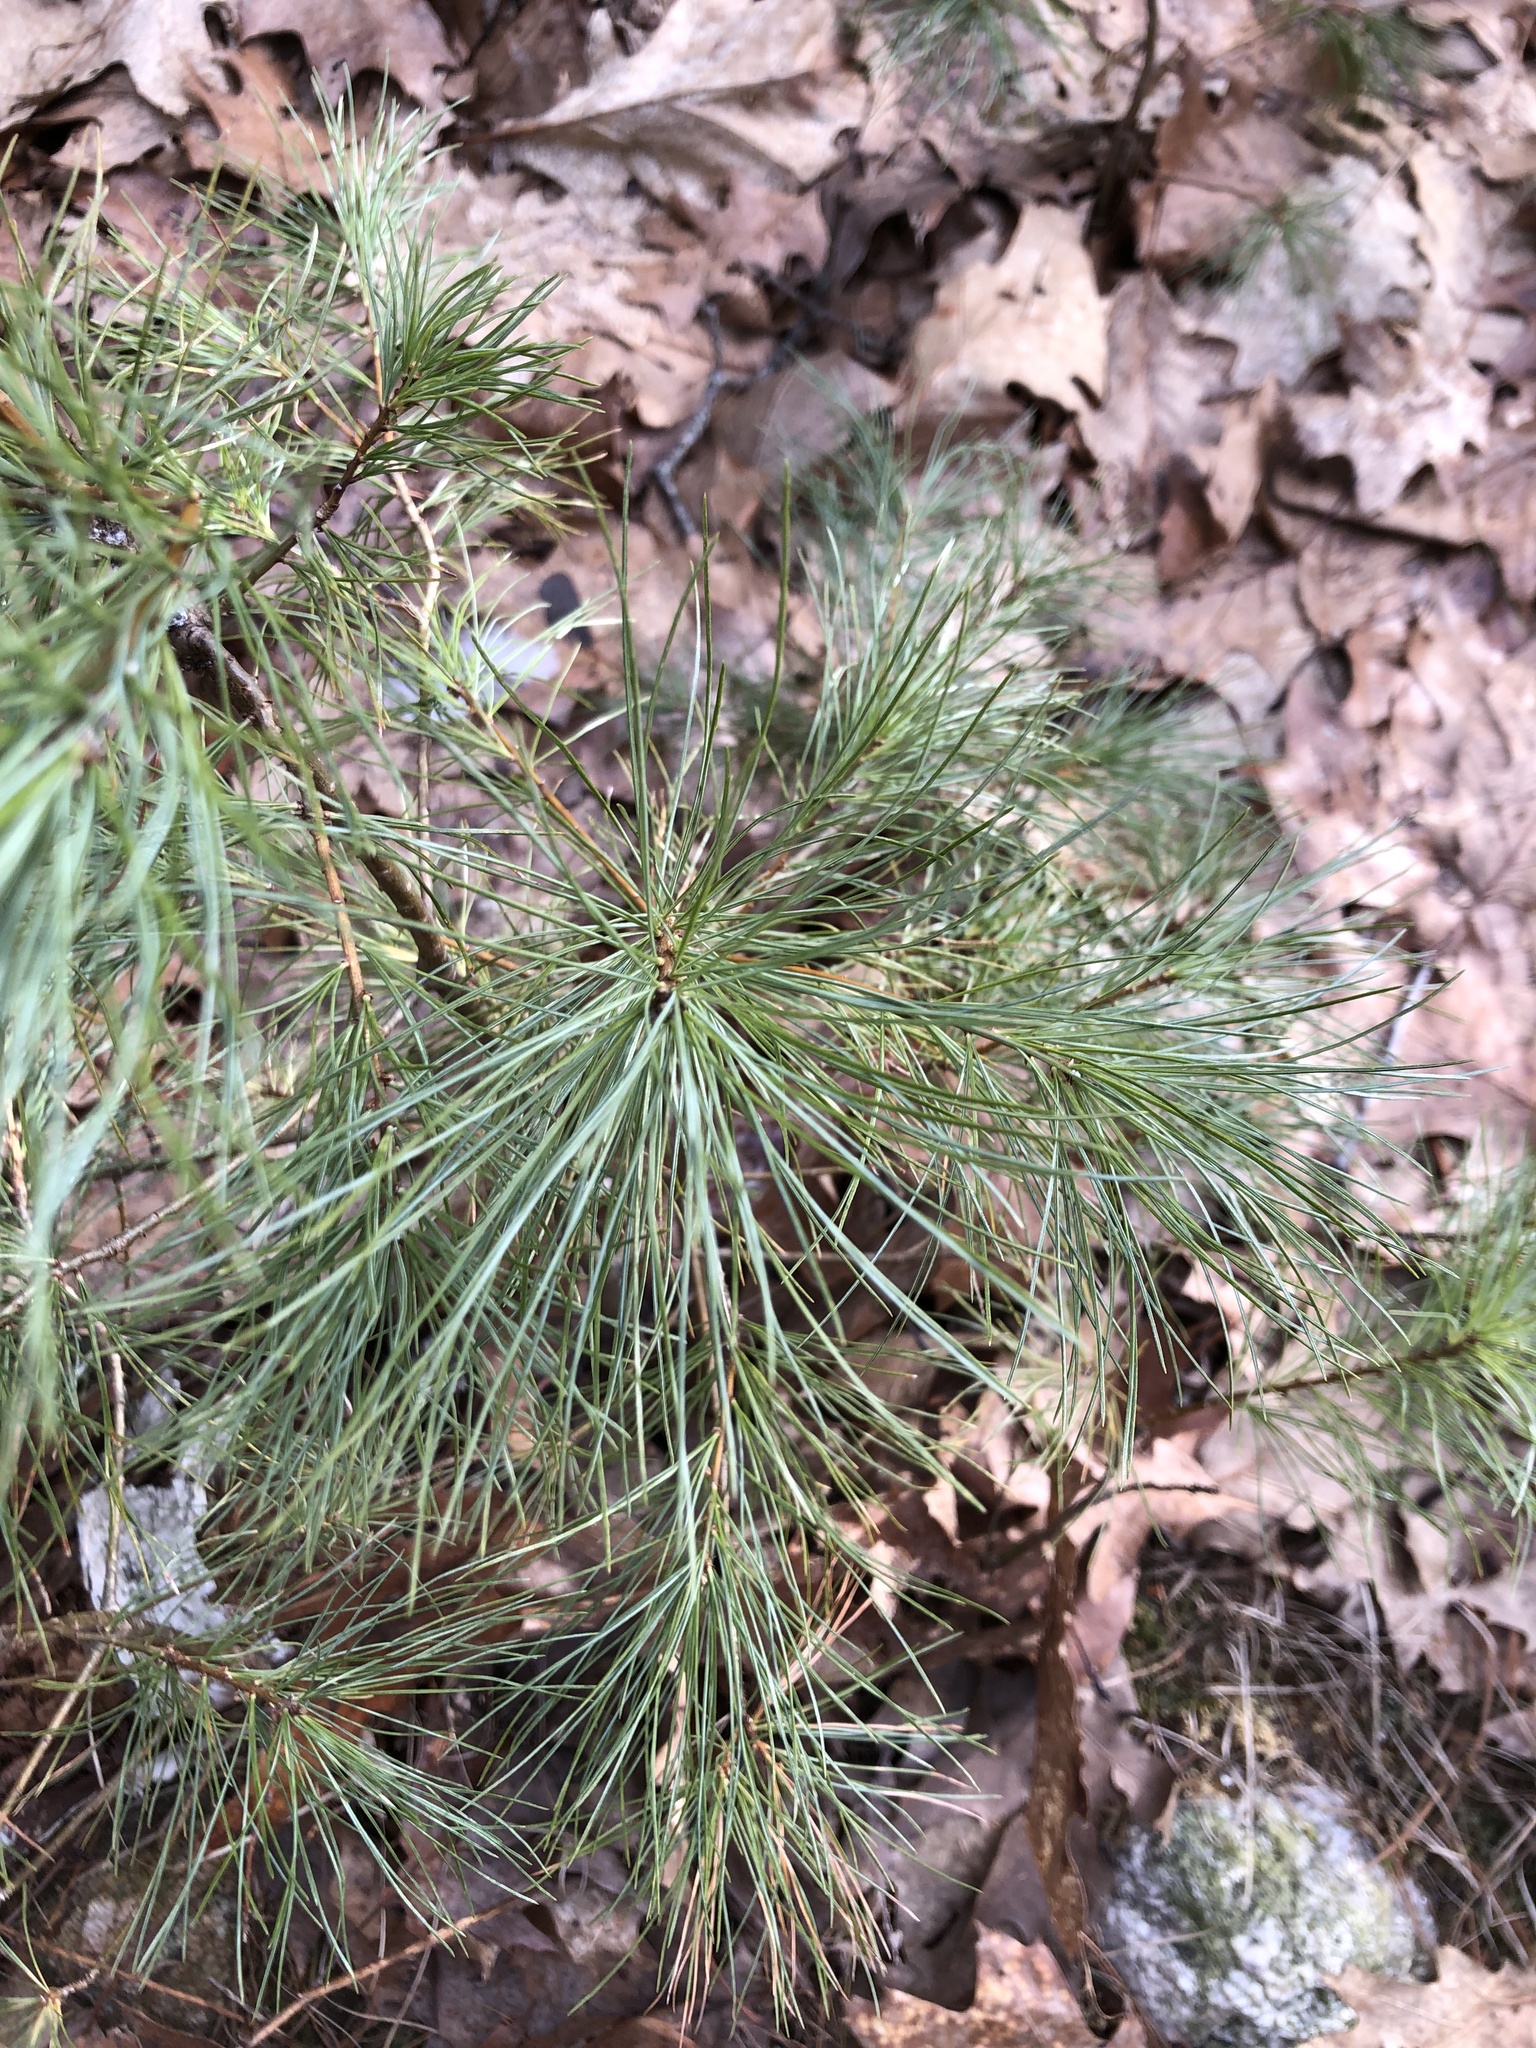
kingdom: Plantae
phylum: Tracheophyta
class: Pinopsida
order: Pinales
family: Pinaceae
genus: Pinus
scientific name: Pinus strobus
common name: Weymouth pine
